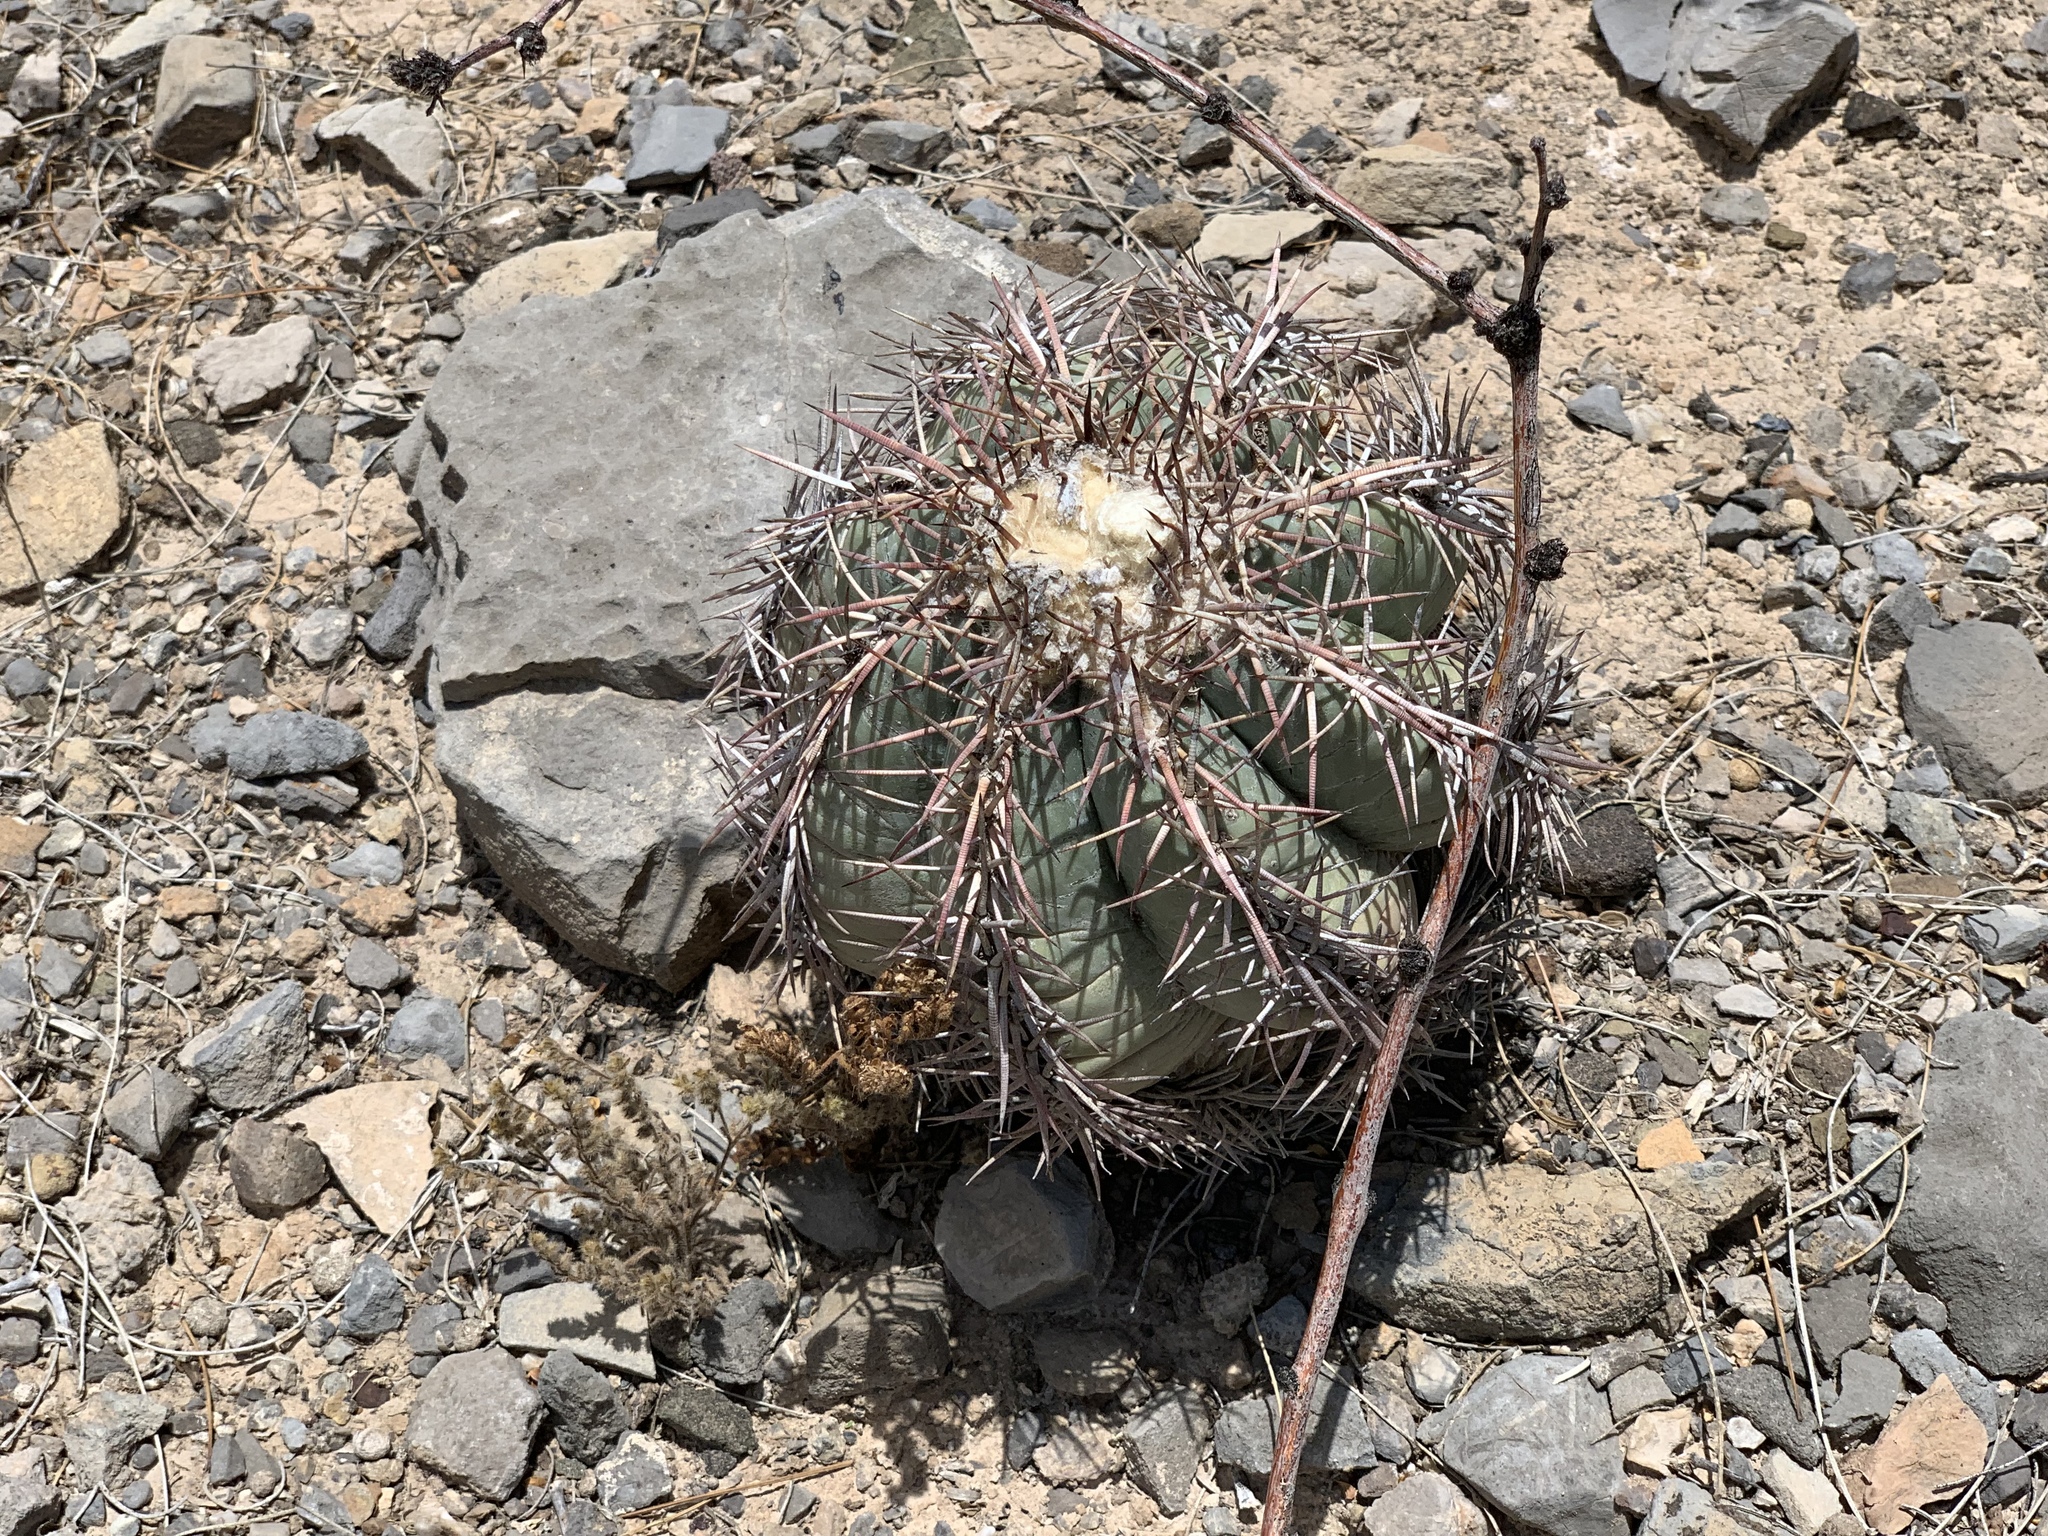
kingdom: Plantae
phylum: Tracheophyta
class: Magnoliopsida
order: Caryophyllales
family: Cactaceae
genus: Echinocactus
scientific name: Echinocactus horizonthalonius
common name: Devilshead
